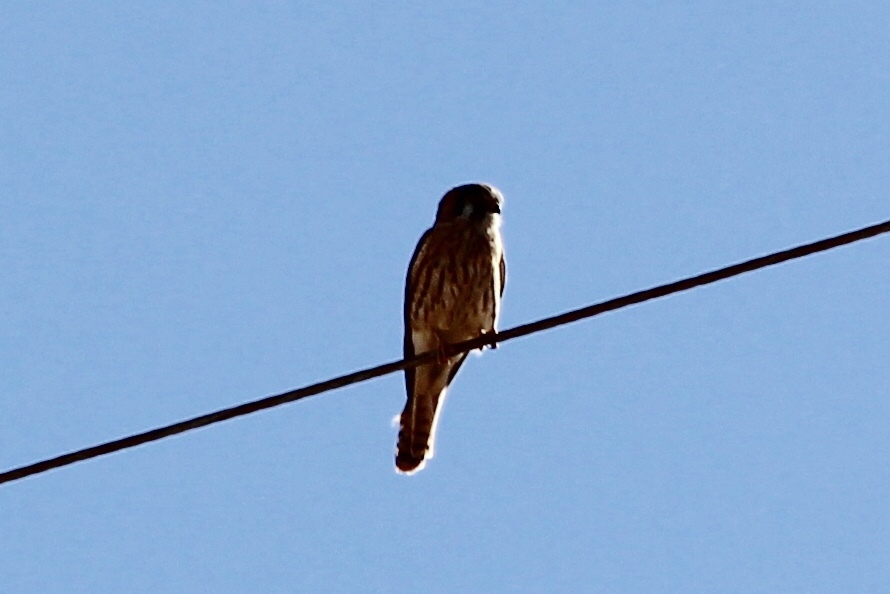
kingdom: Animalia
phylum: Chordata
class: Aves
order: Falconiformes
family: Falconidae
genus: Falco
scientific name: Falco sparverius
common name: American kestrel
